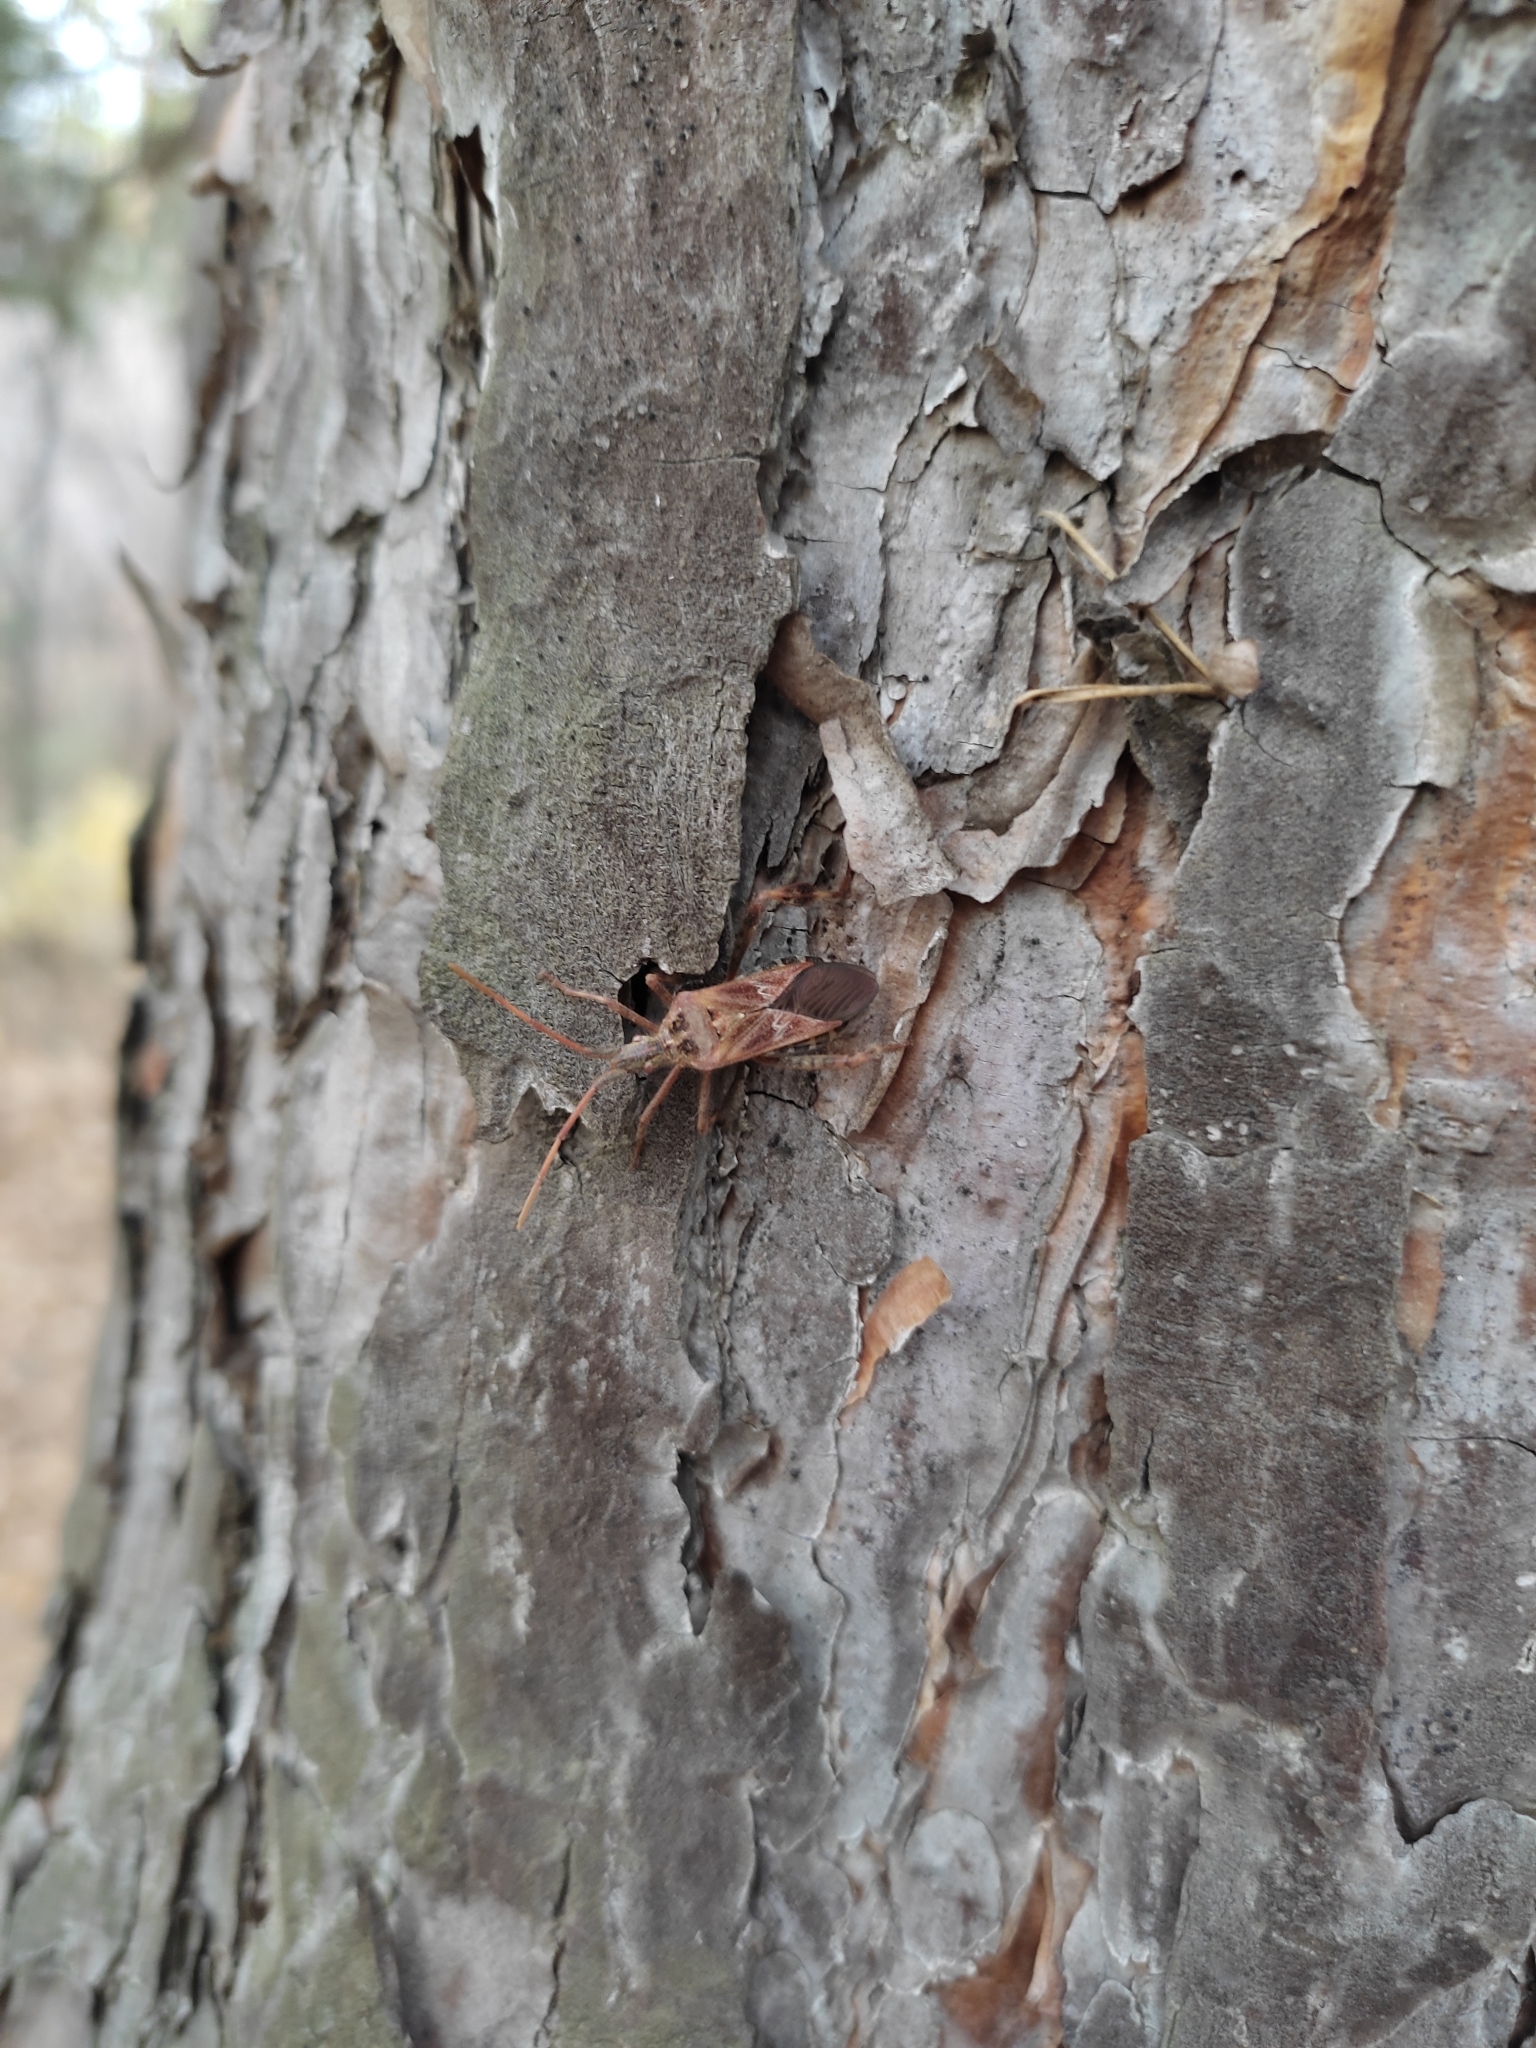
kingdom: Animalia
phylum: Arthropoda
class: Insecta
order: Hemiptera
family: Coreidae
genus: Leptoglossus
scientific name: Leptoglossus occidentalis
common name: Western conifer-seed bug
